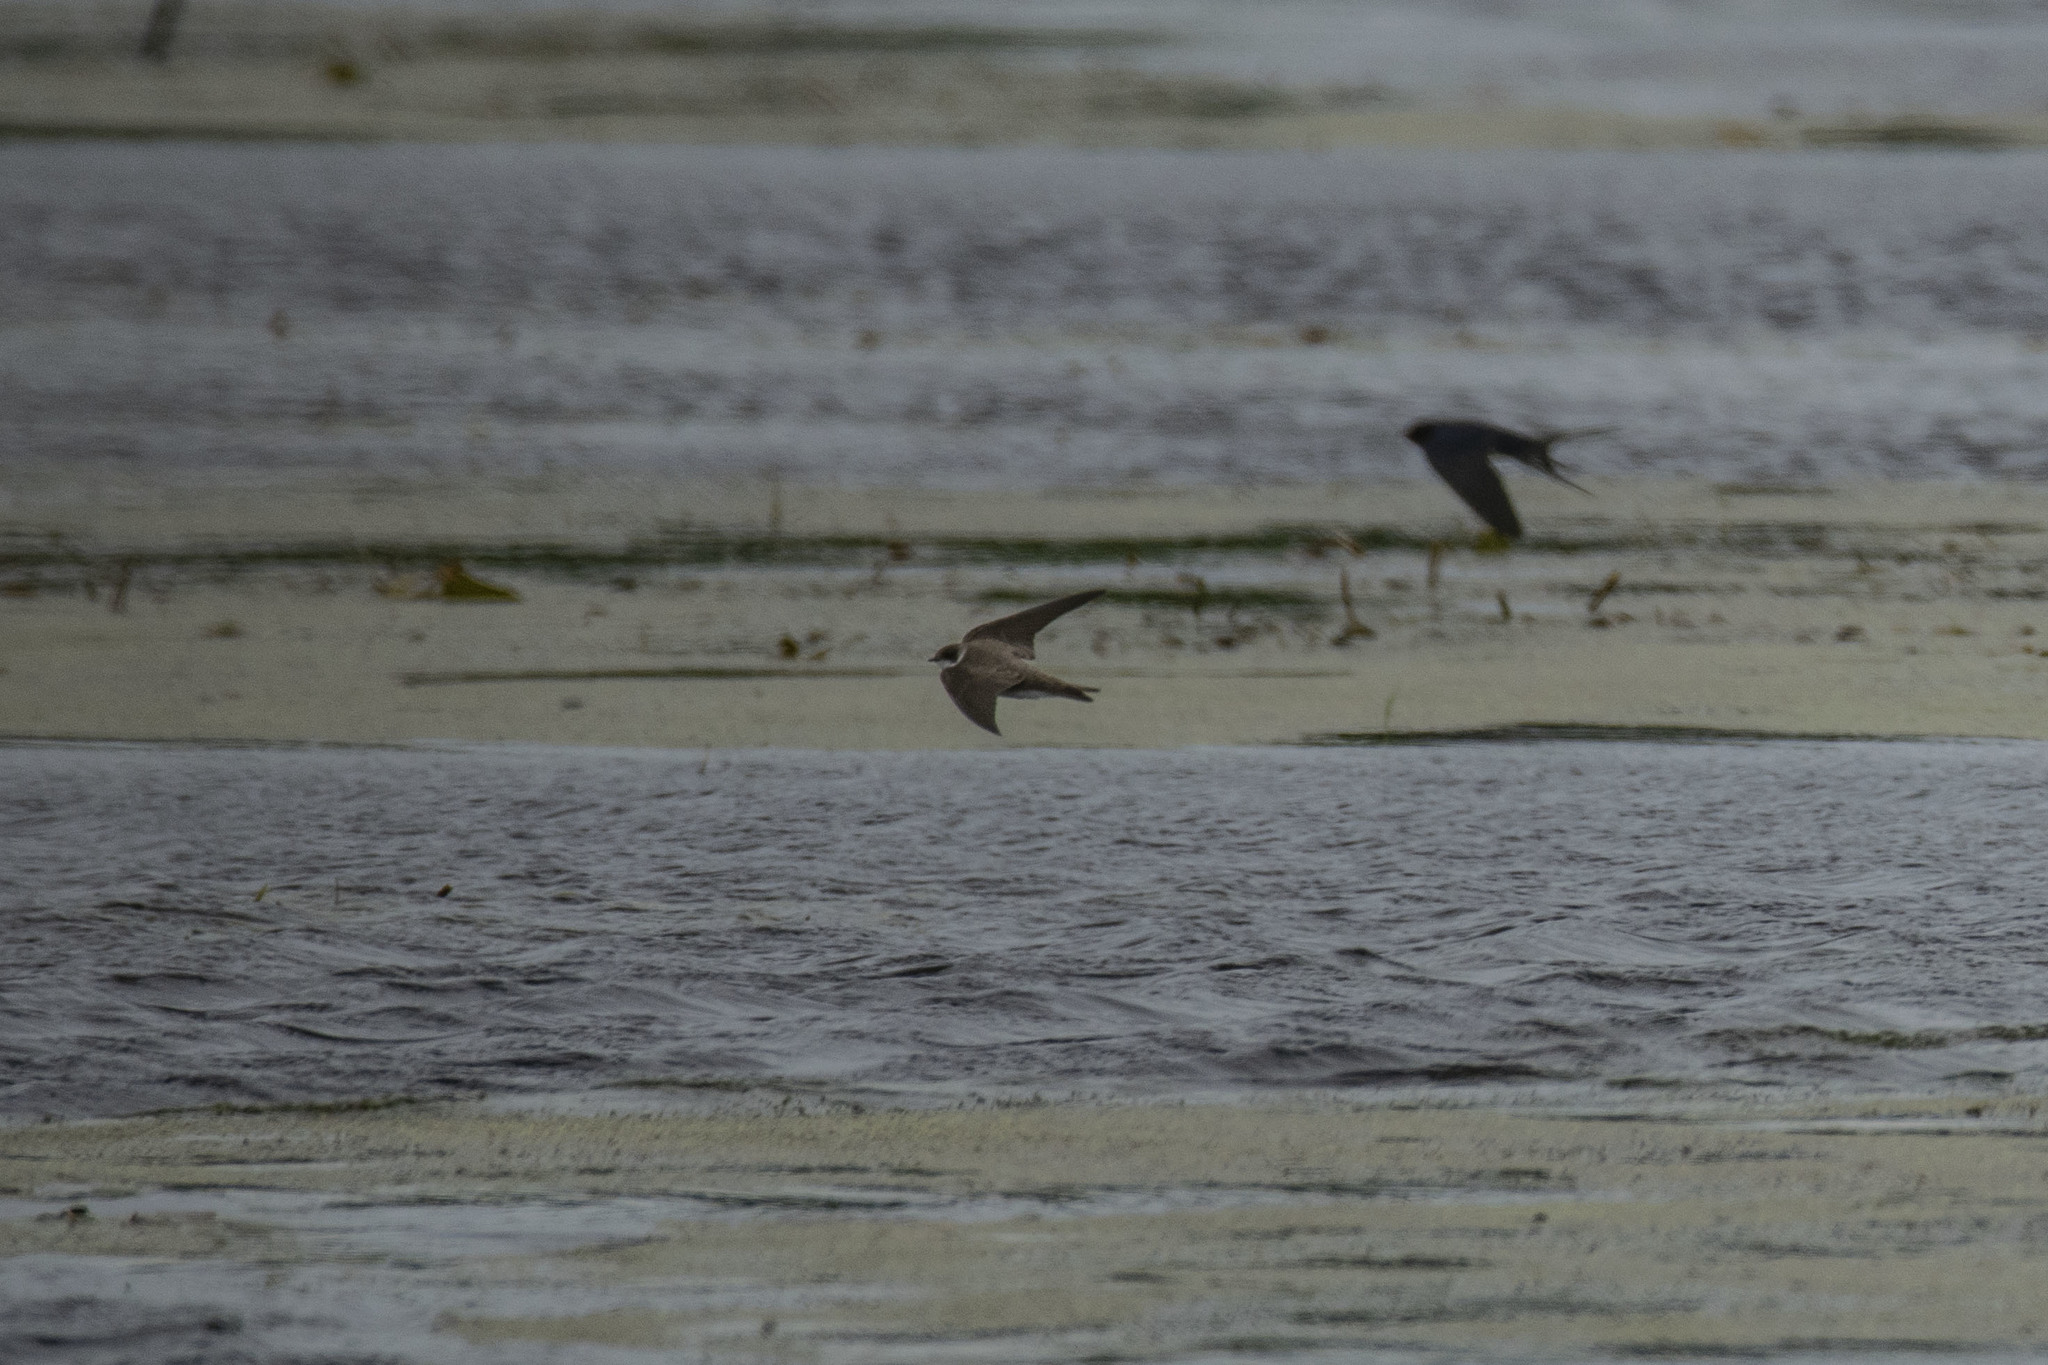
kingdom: Animalia
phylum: Chordata
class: Aves
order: Passeriformes
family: Hirundinidae
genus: Riparia
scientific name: Riparia riparia
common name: Sand martin
